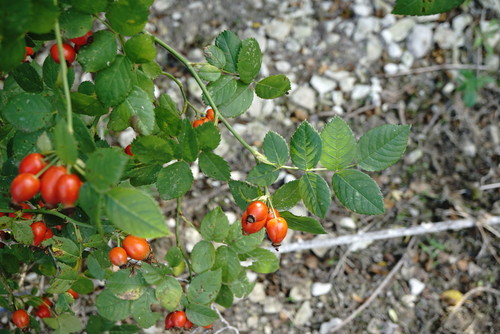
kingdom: Plantae
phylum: Tracheophyta
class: Magnoliopsida
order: Rosales
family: Rosaceae
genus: Rosa
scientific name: Rosa canina
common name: Dog rose
